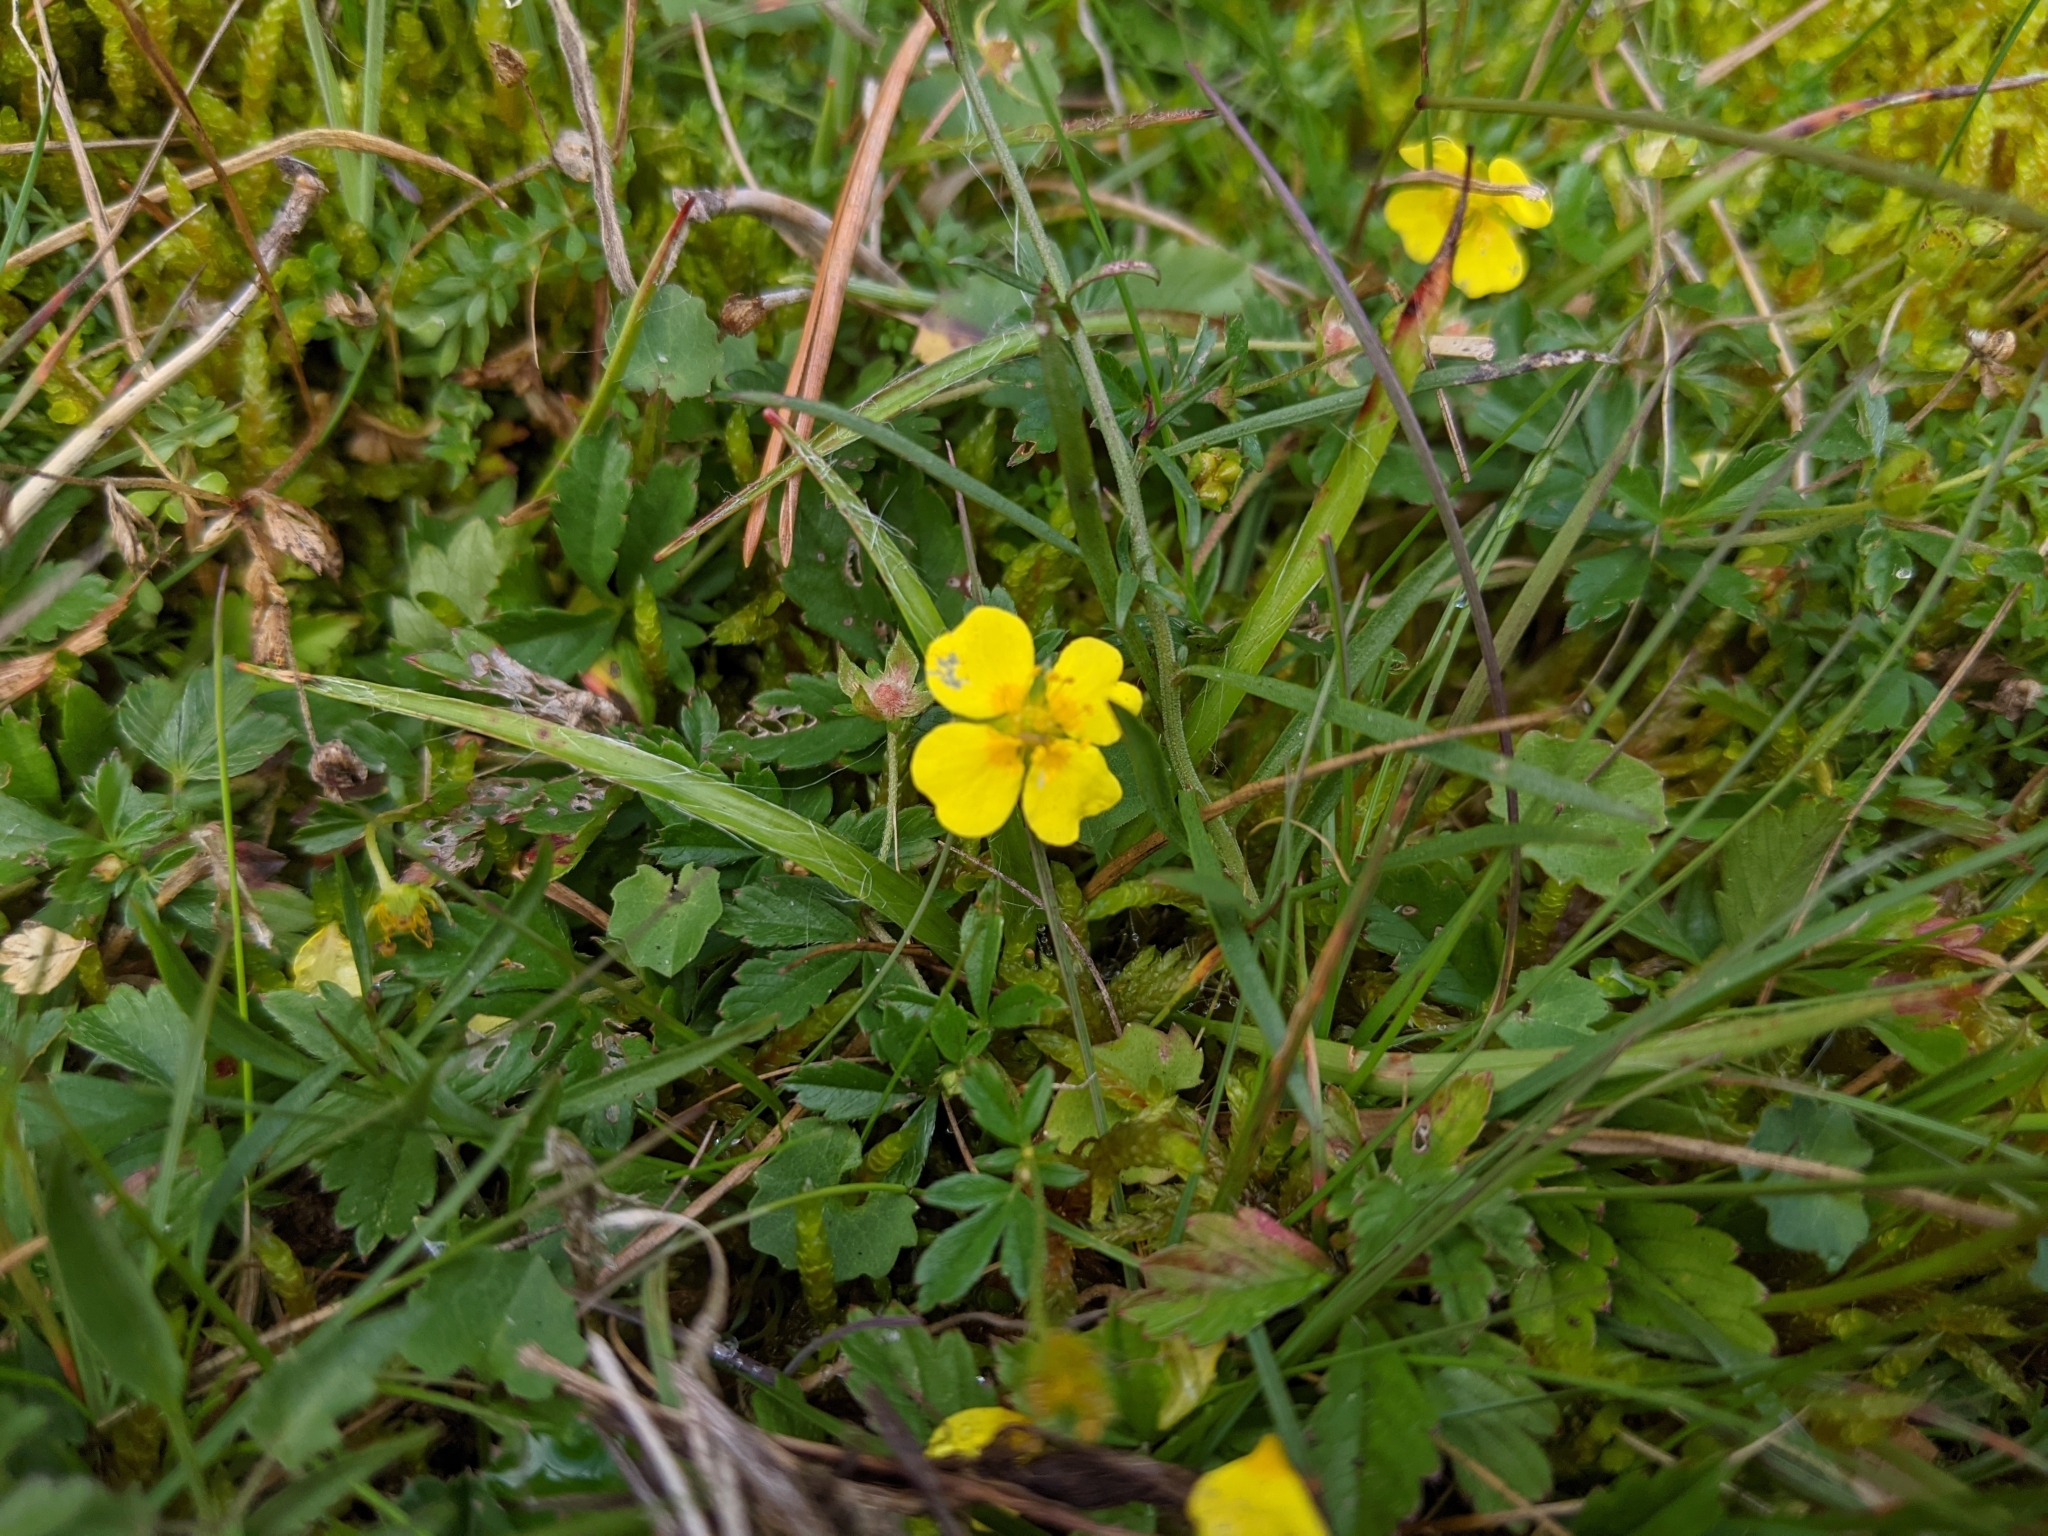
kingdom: Plantae
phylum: Tracheophyta
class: Magnoliopsida
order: Rosales
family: Rosaceae
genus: Potentilla
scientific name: Potentilla erecta
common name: Tormentil
